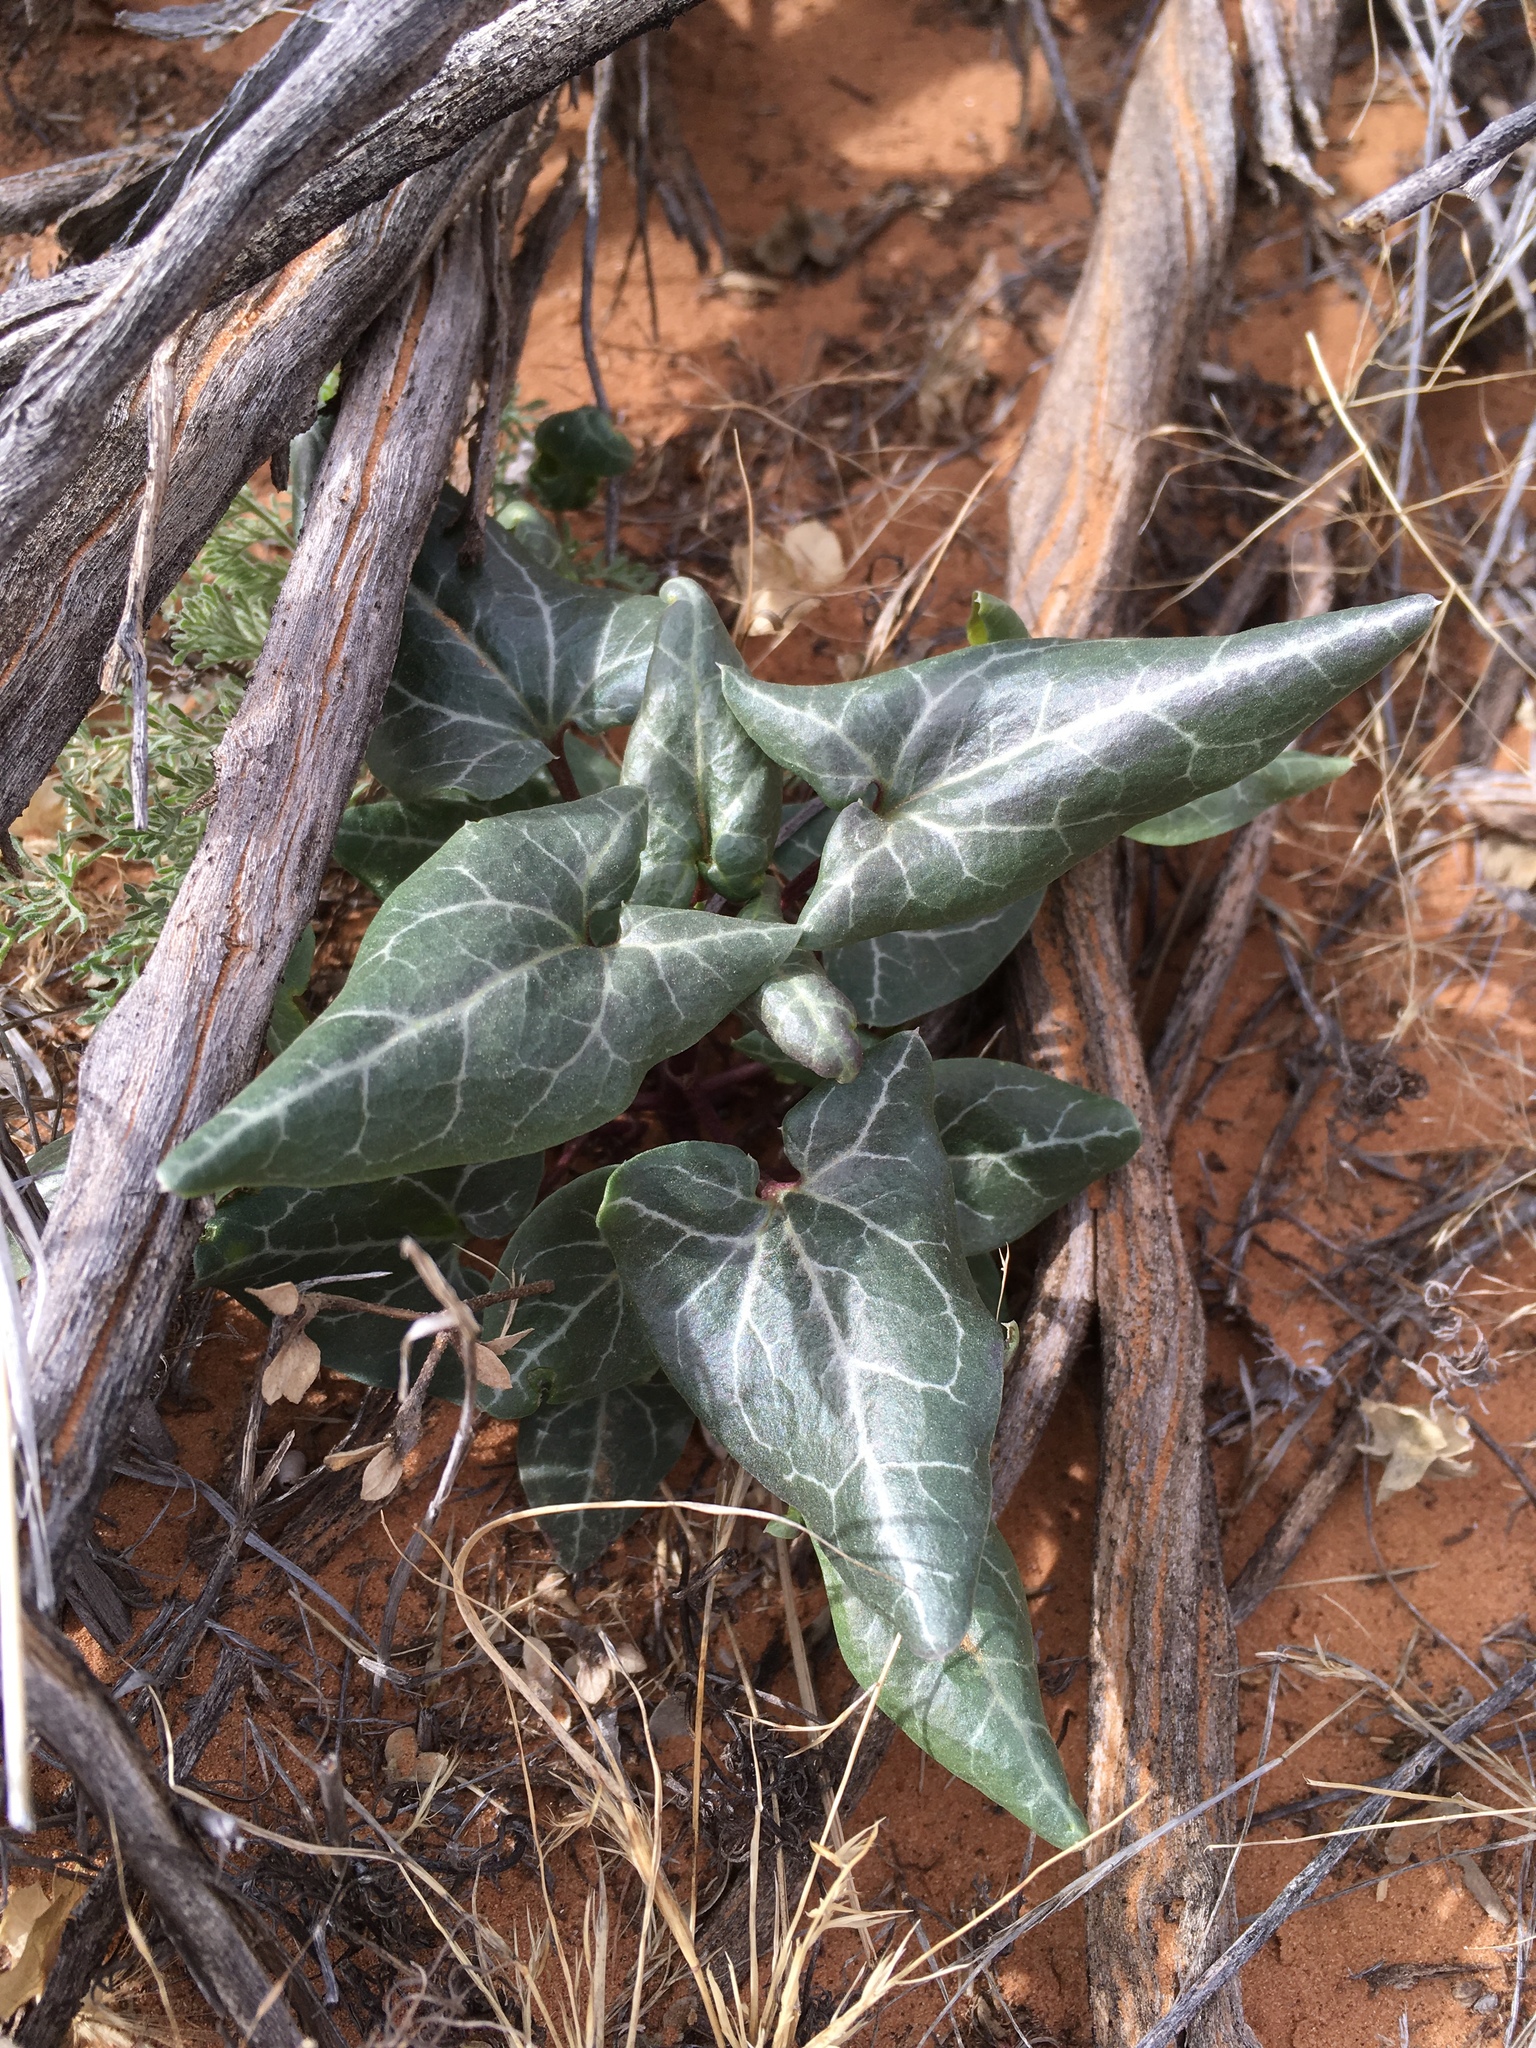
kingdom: Plantae
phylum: Tracheophyta
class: Magnoliopsida
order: Lamiales
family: Plantaginaceae
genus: Epixiphium
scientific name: Epixiphium wislizeni
